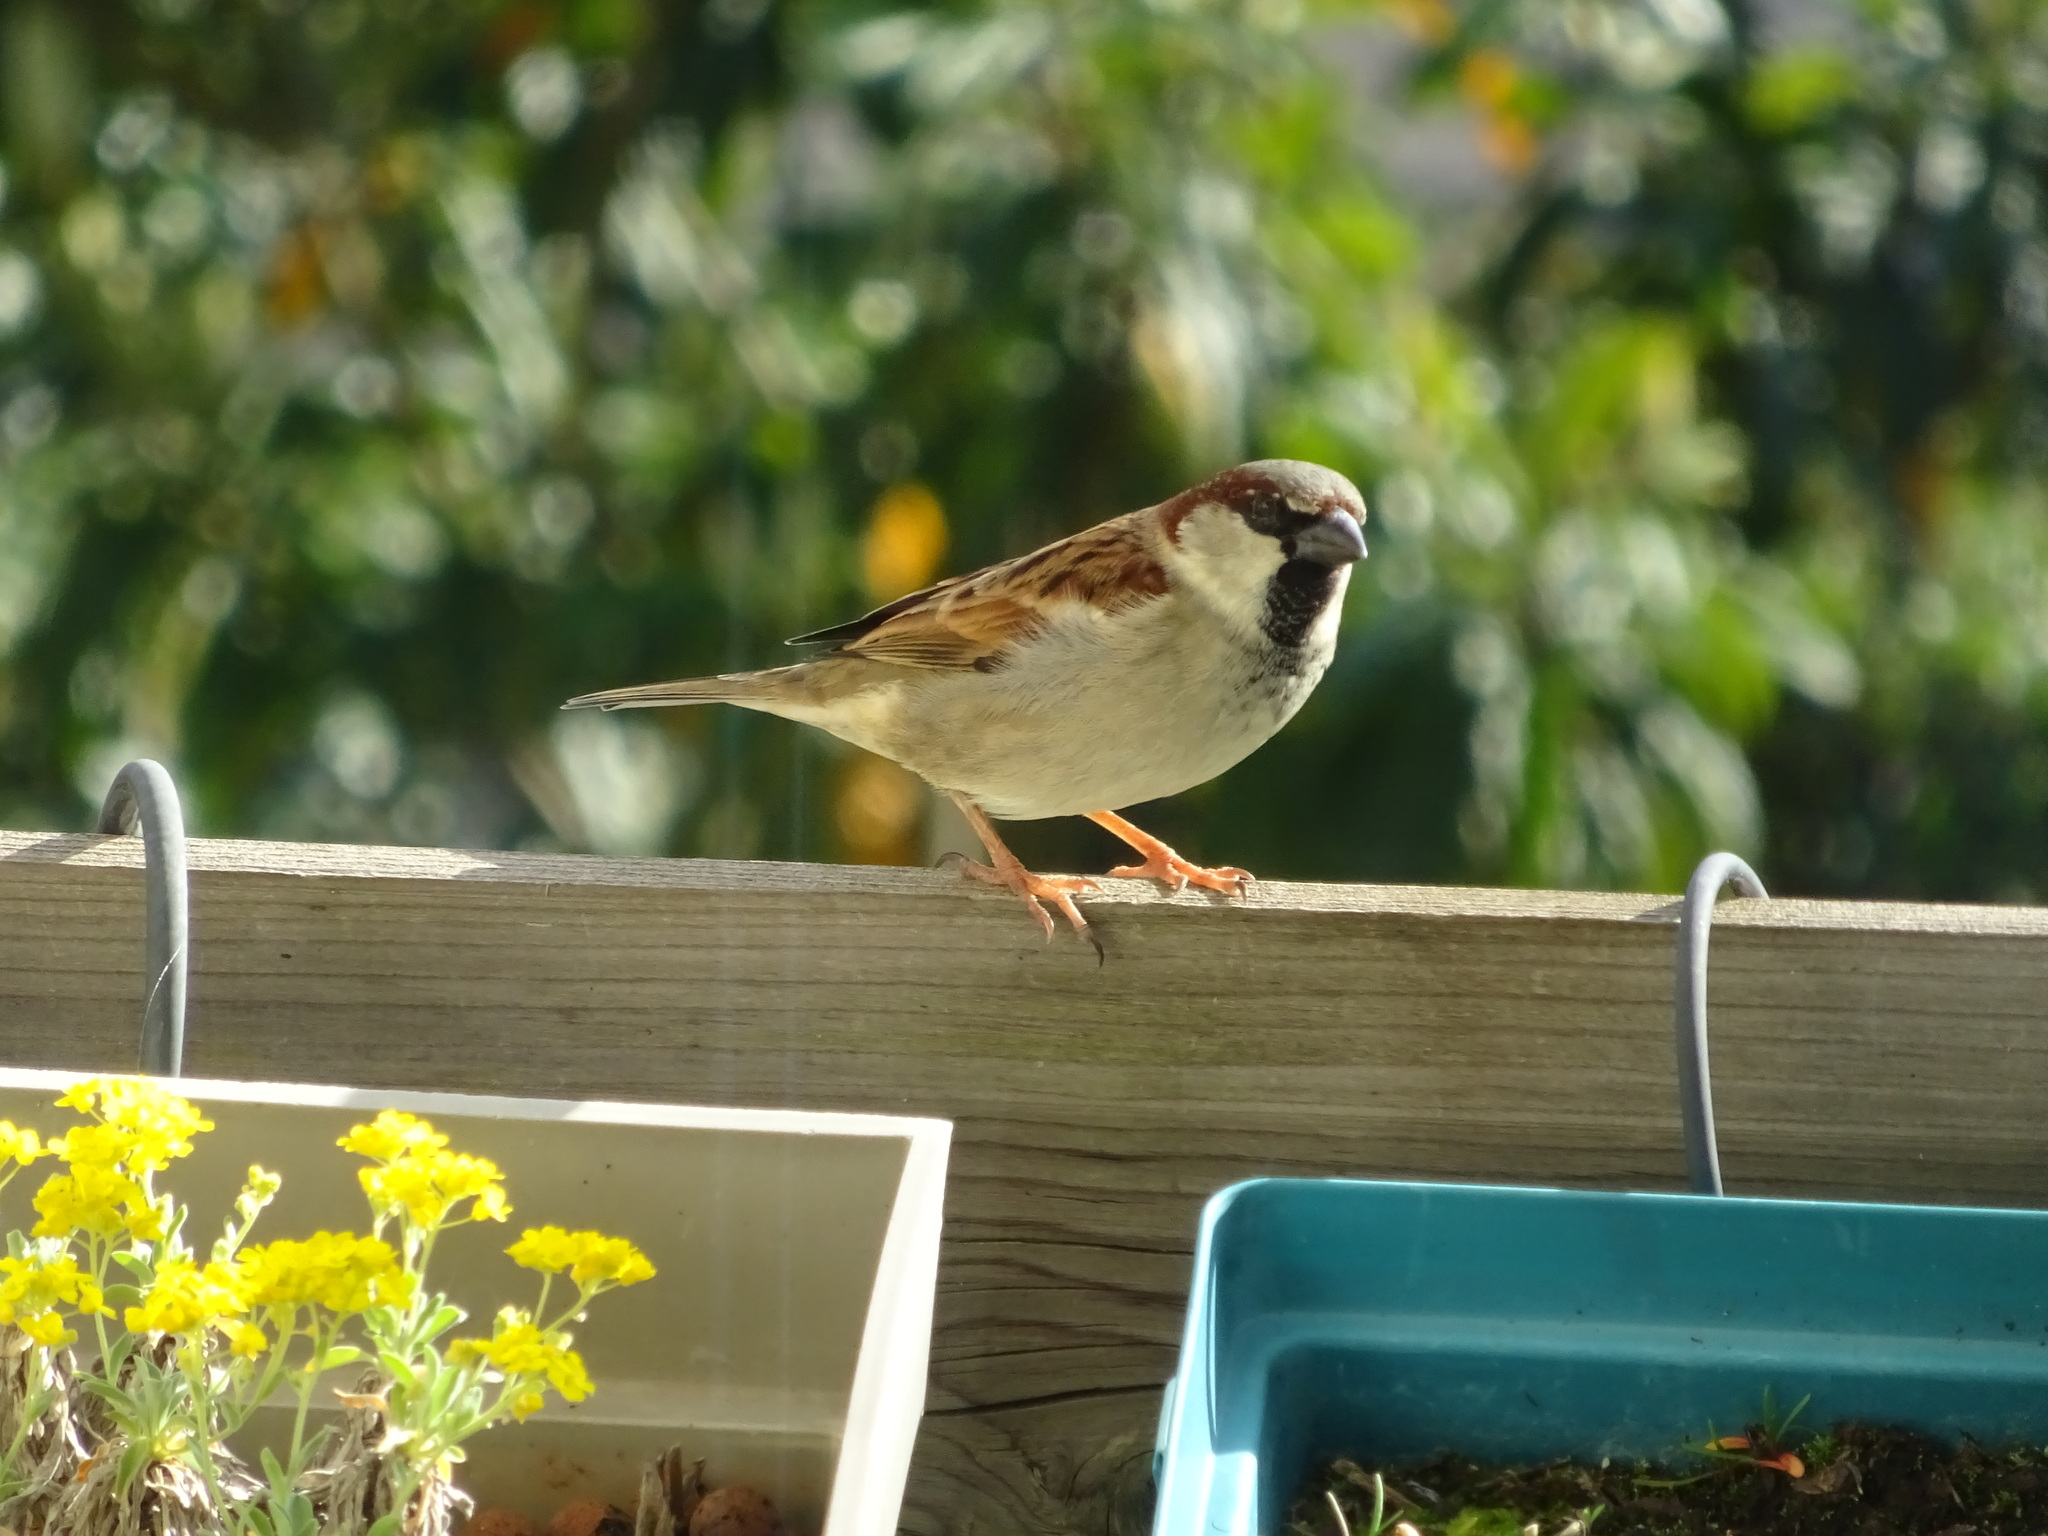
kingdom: Animalia
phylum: Chordata
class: Aves
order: Passeriformes
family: Passeridae
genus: Passer
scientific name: Passer domesticus
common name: House sparrow
